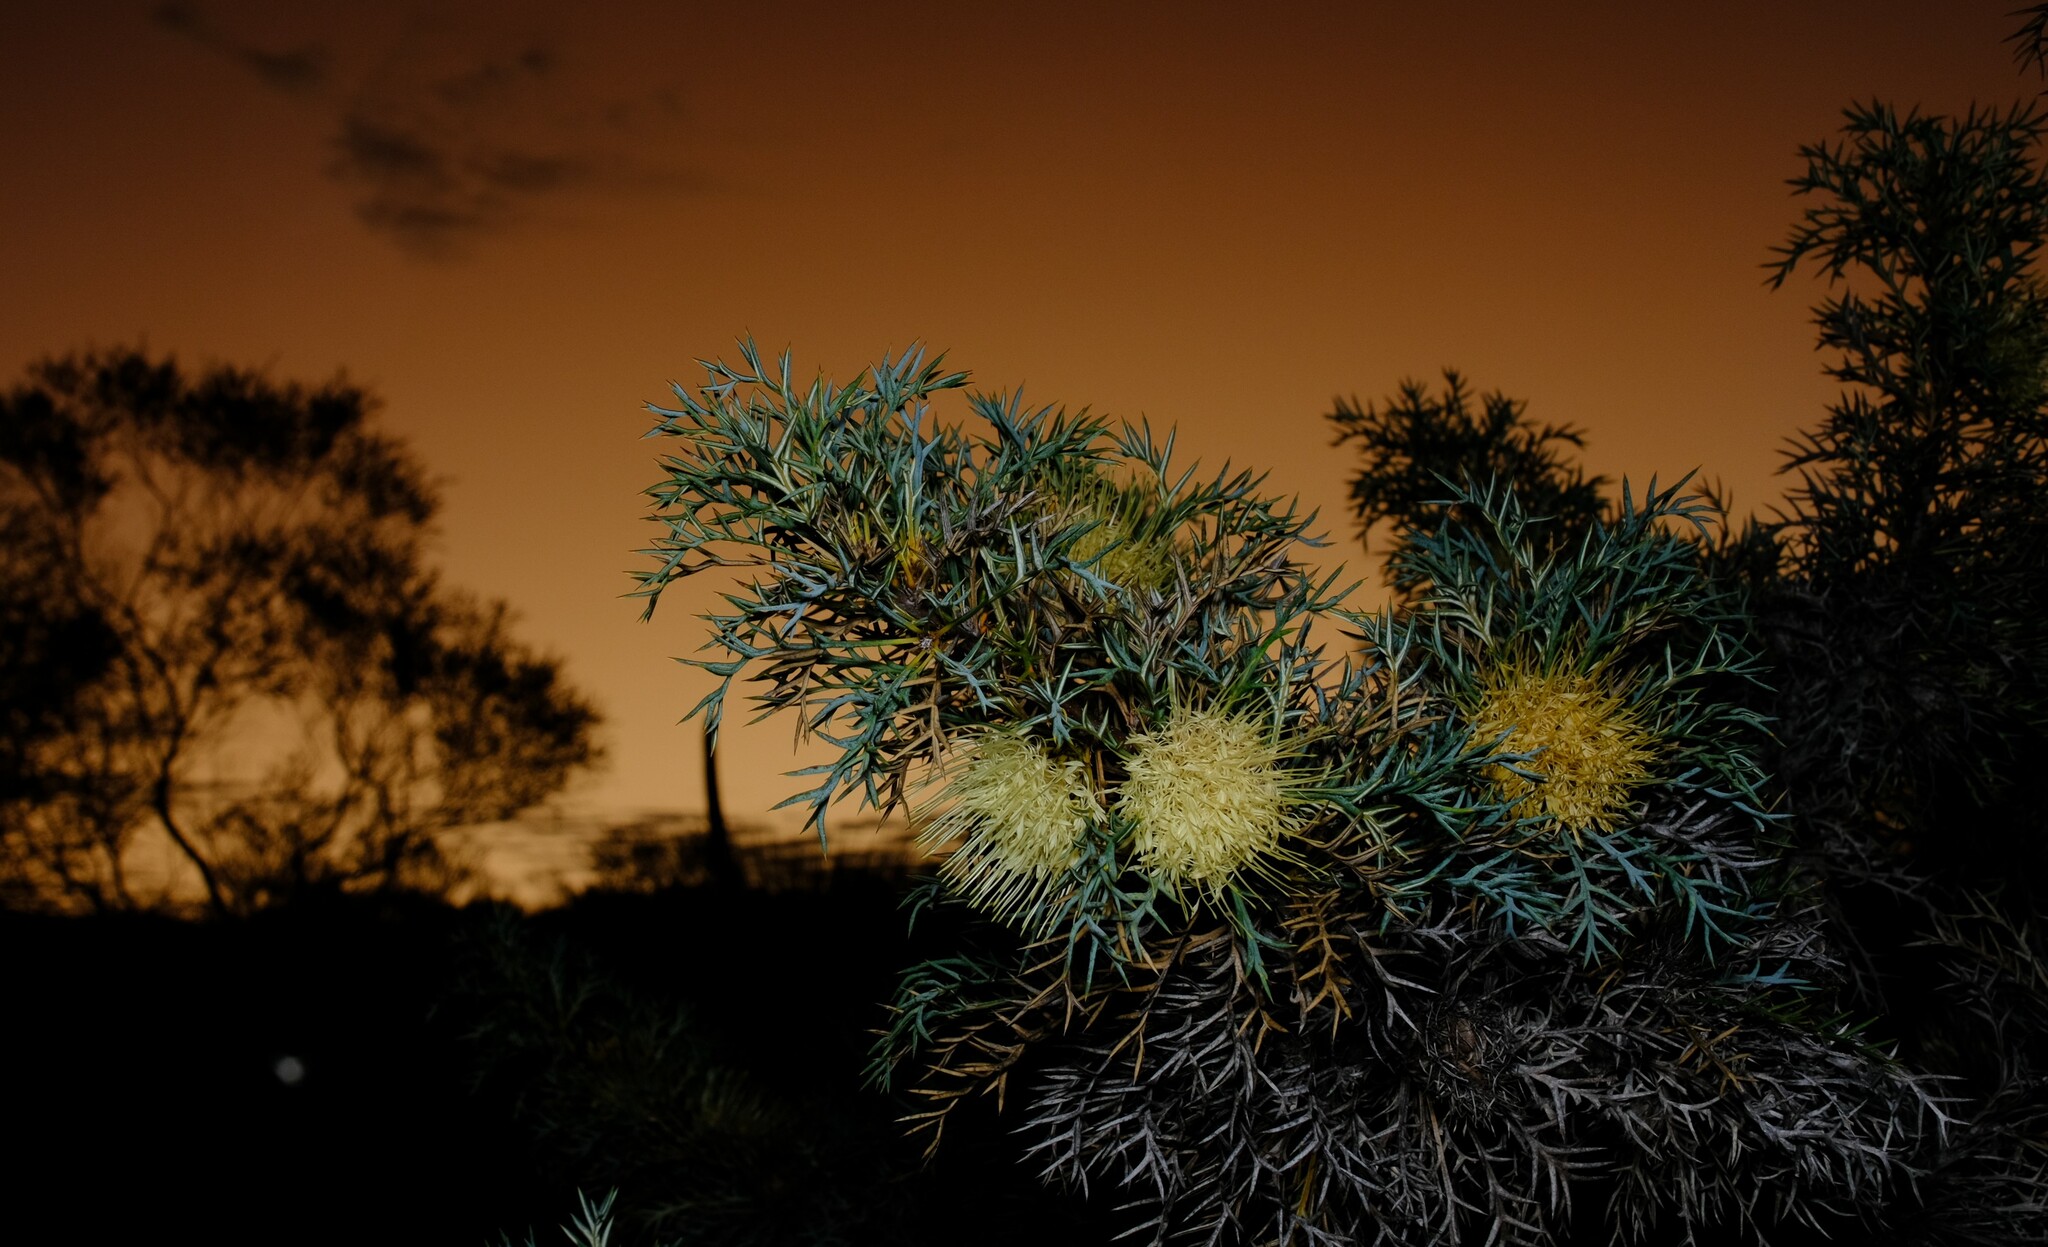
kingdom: Plantae
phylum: Tracheophyta
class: Magnoliopsida
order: Proteales
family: Proteaceae
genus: Banksia
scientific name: Banksia fraseri
